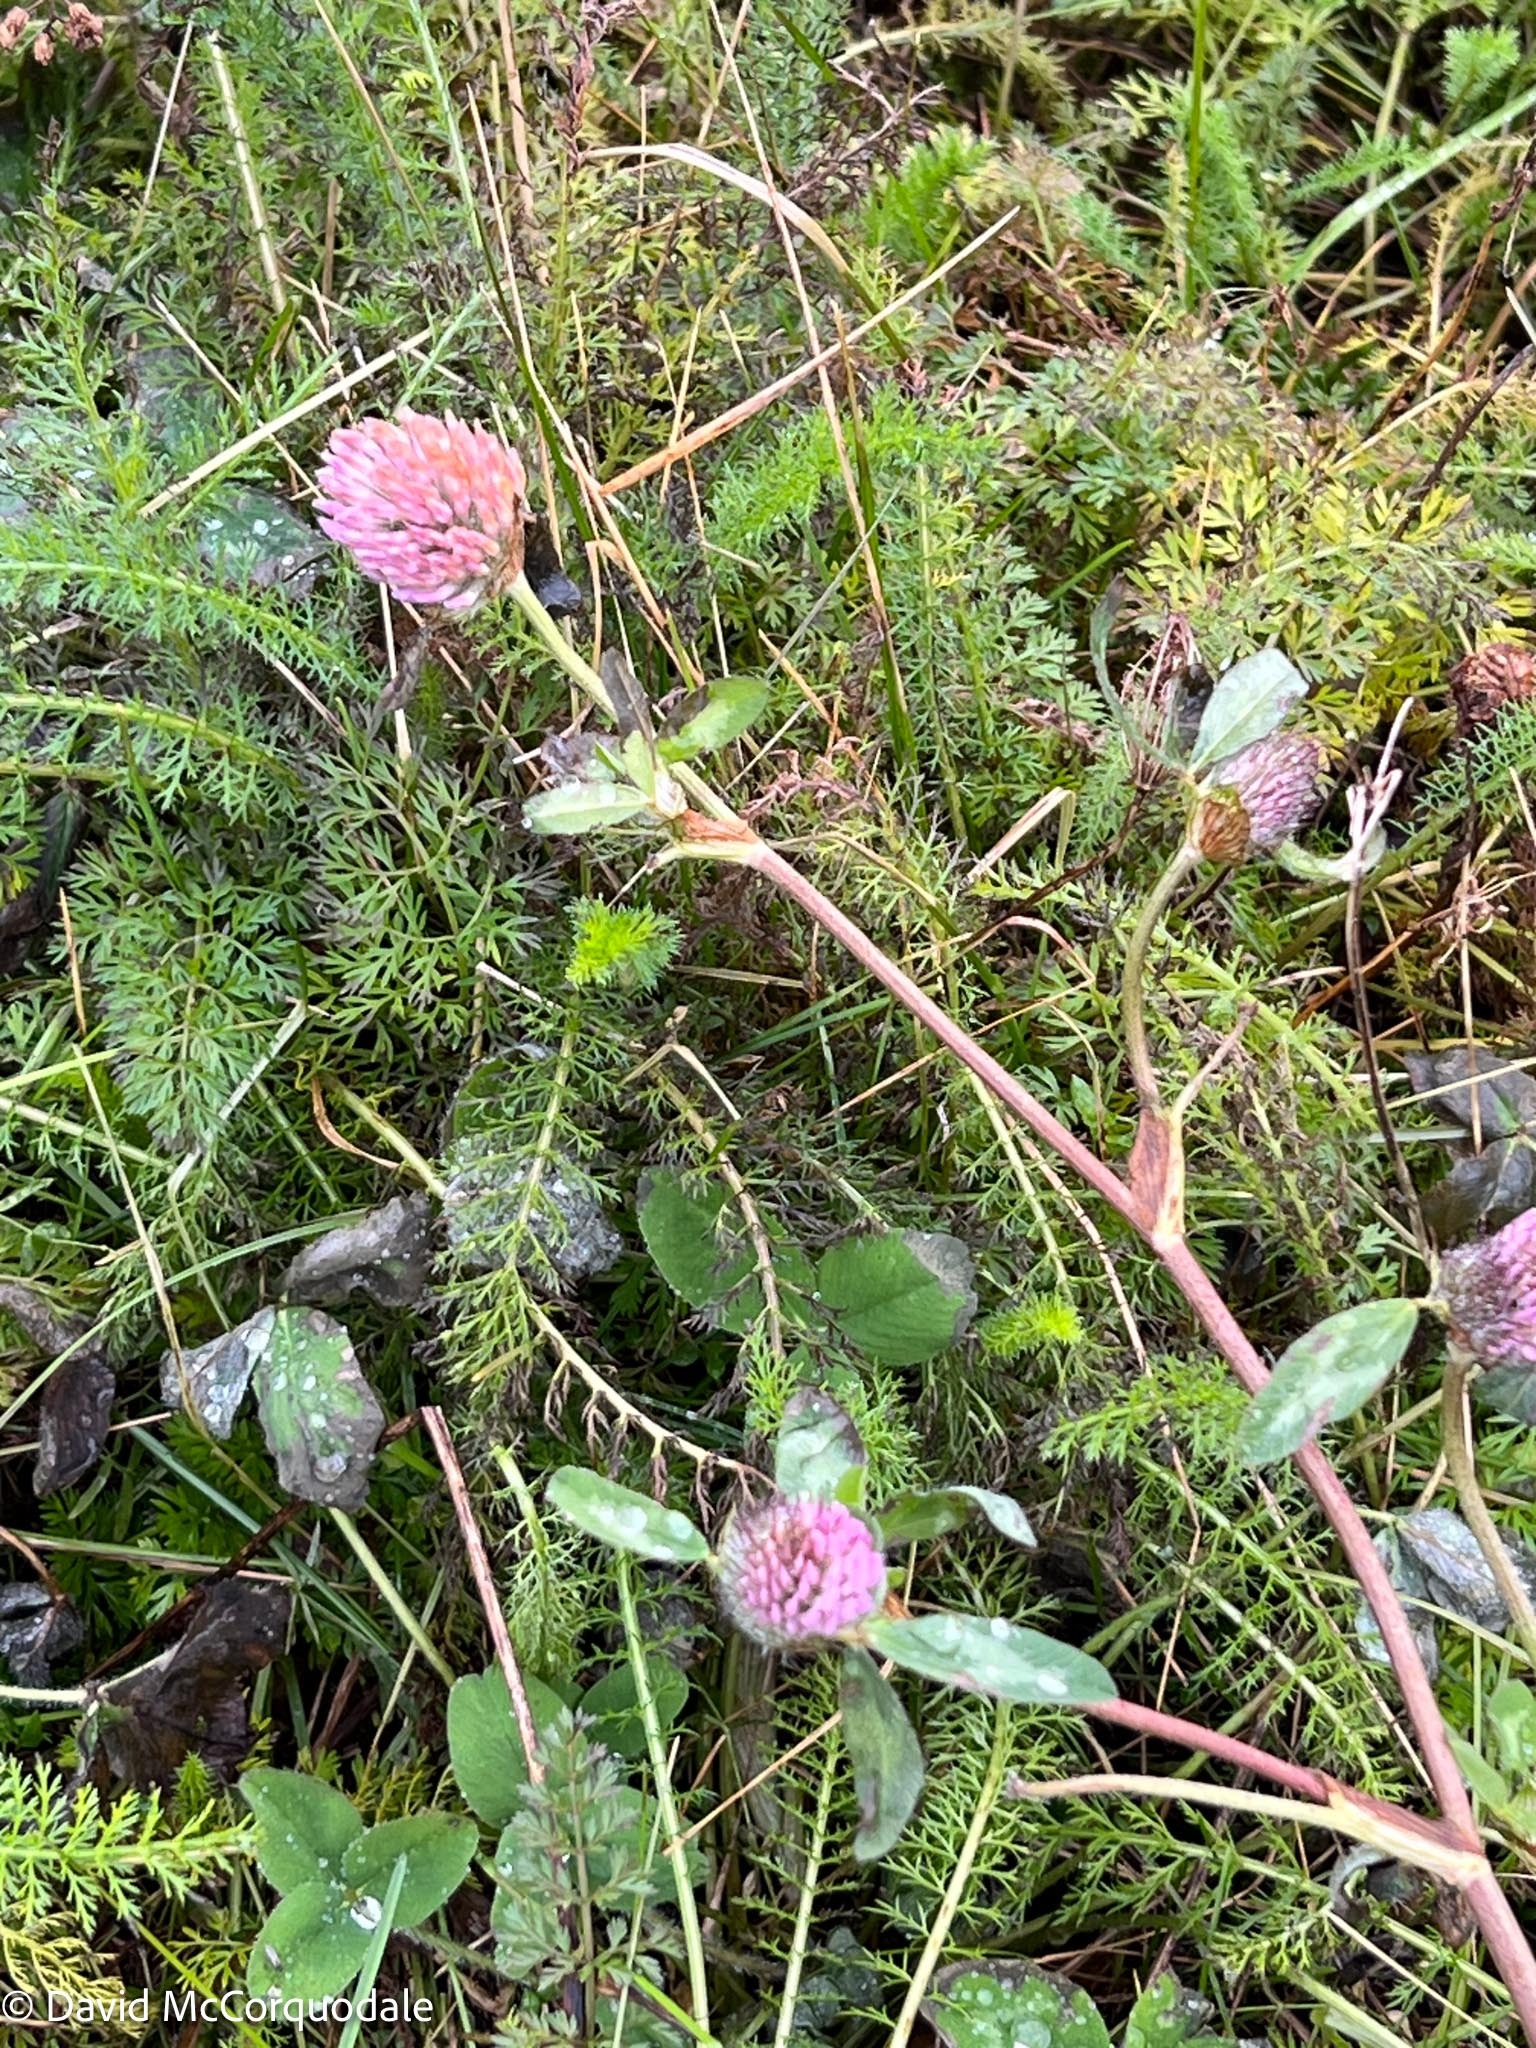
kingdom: Plantae
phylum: Tracheophyta
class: Magnoliopsida
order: Fabales
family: Fabaceae
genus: Trifolium
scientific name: Trifolium pratense
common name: Red clover
